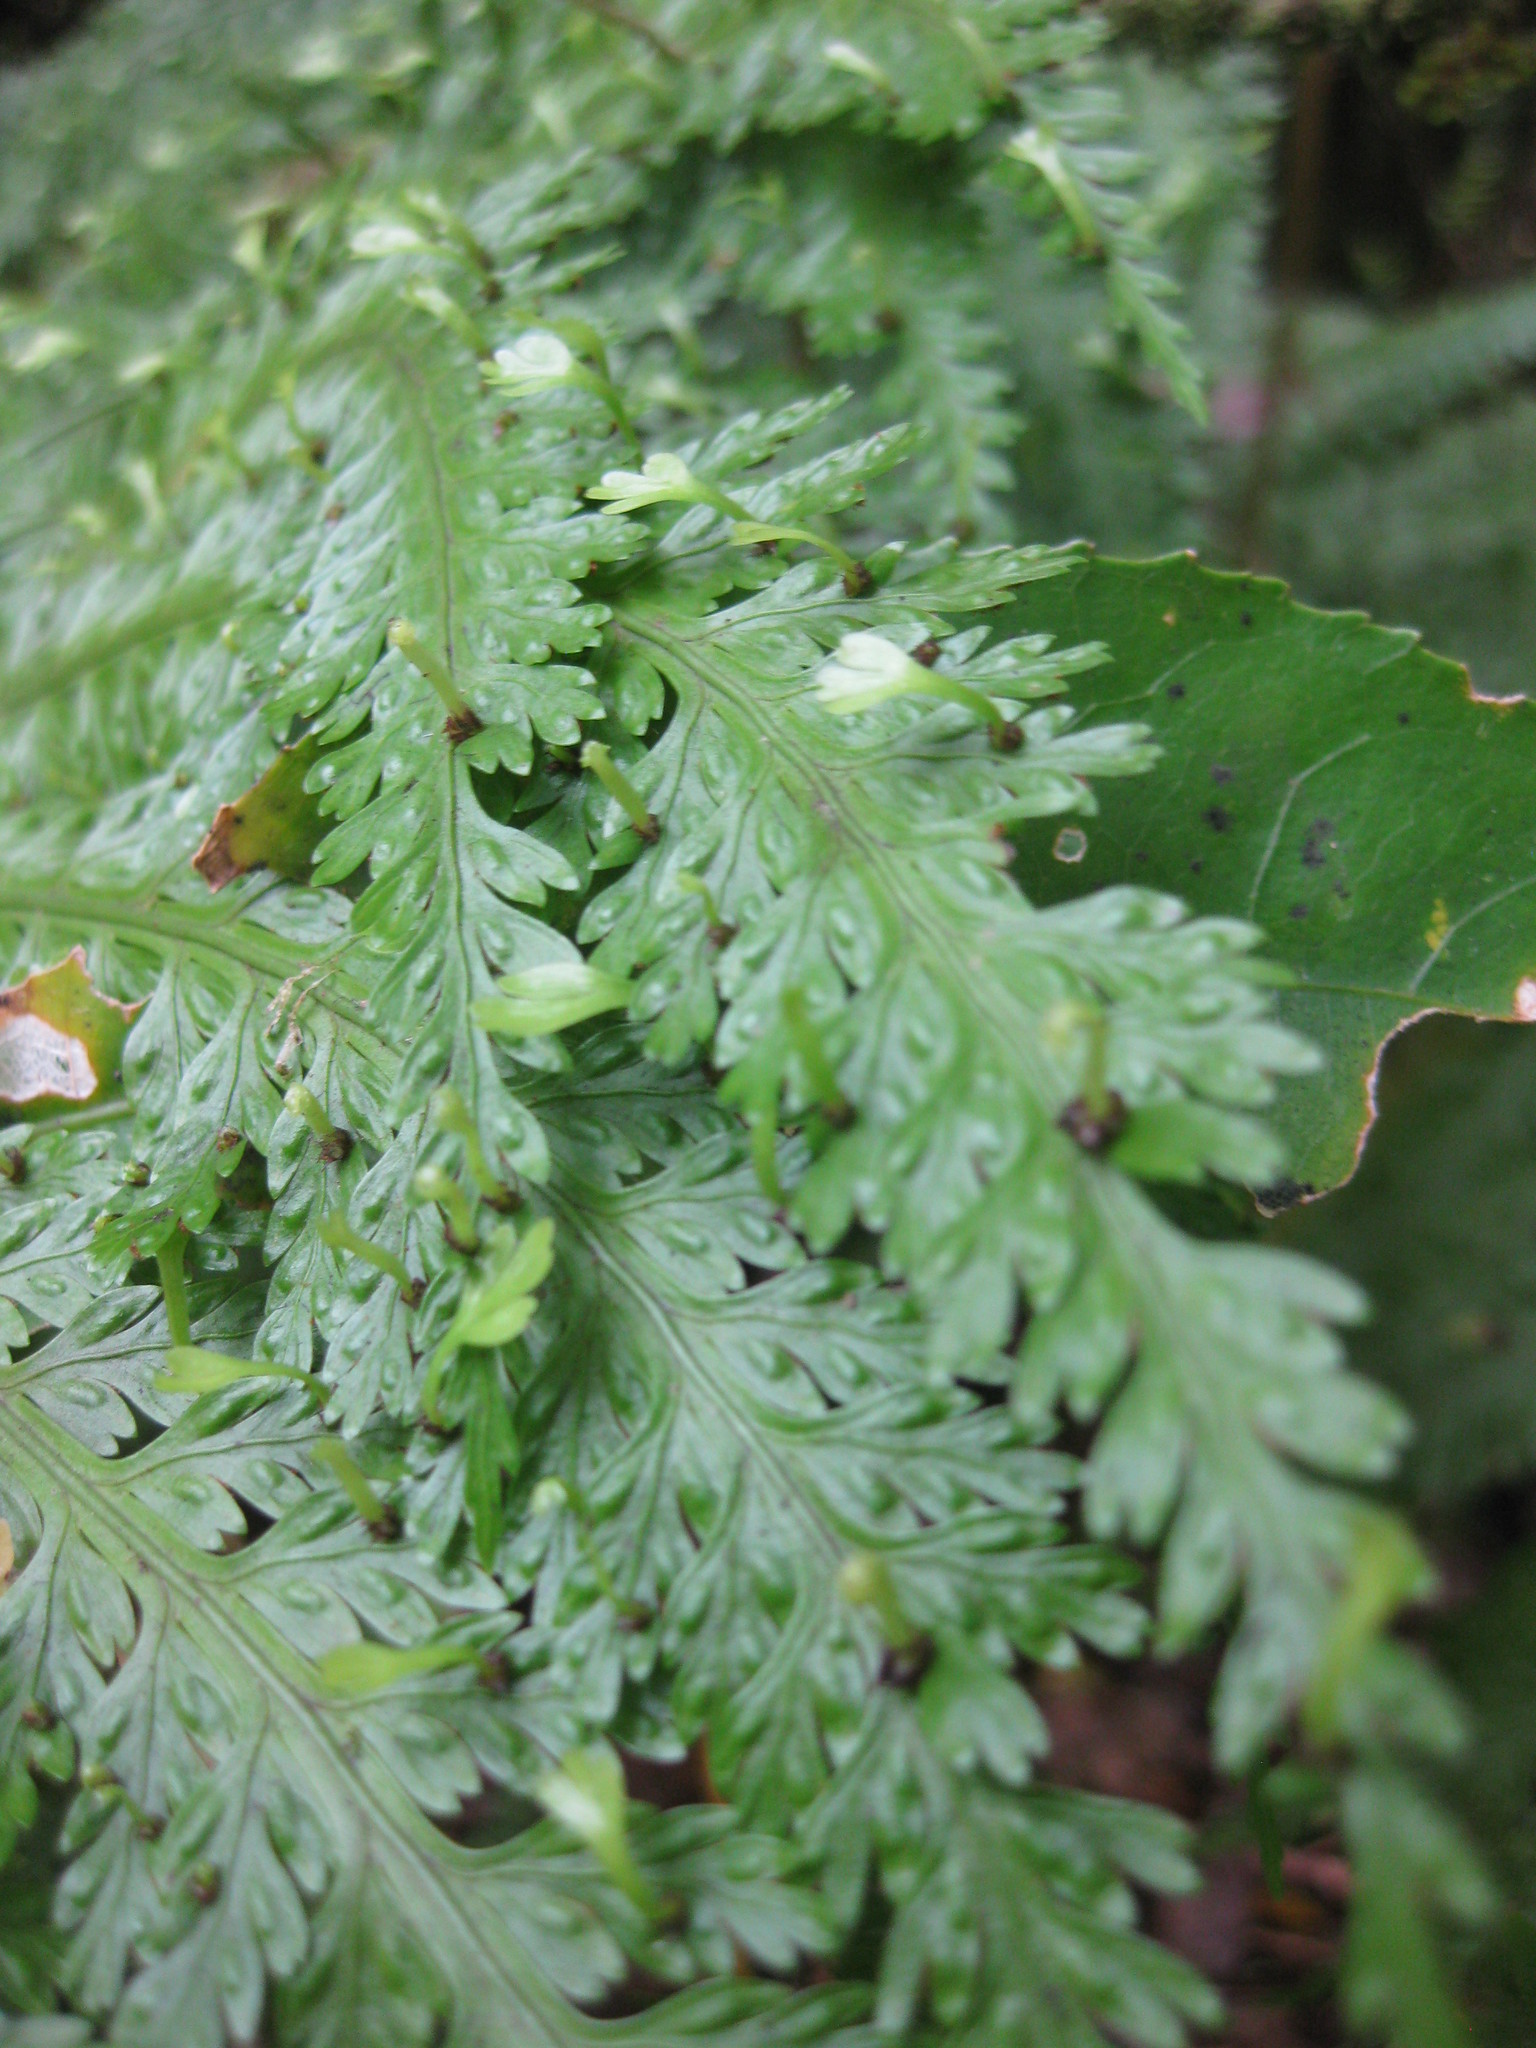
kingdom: Plantae
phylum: Tracheophyta
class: Polypodiopsida
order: Polypodiales
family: Aspleniaceae
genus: Asplenium
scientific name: Asplenium bulbiferum
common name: Mother fern
